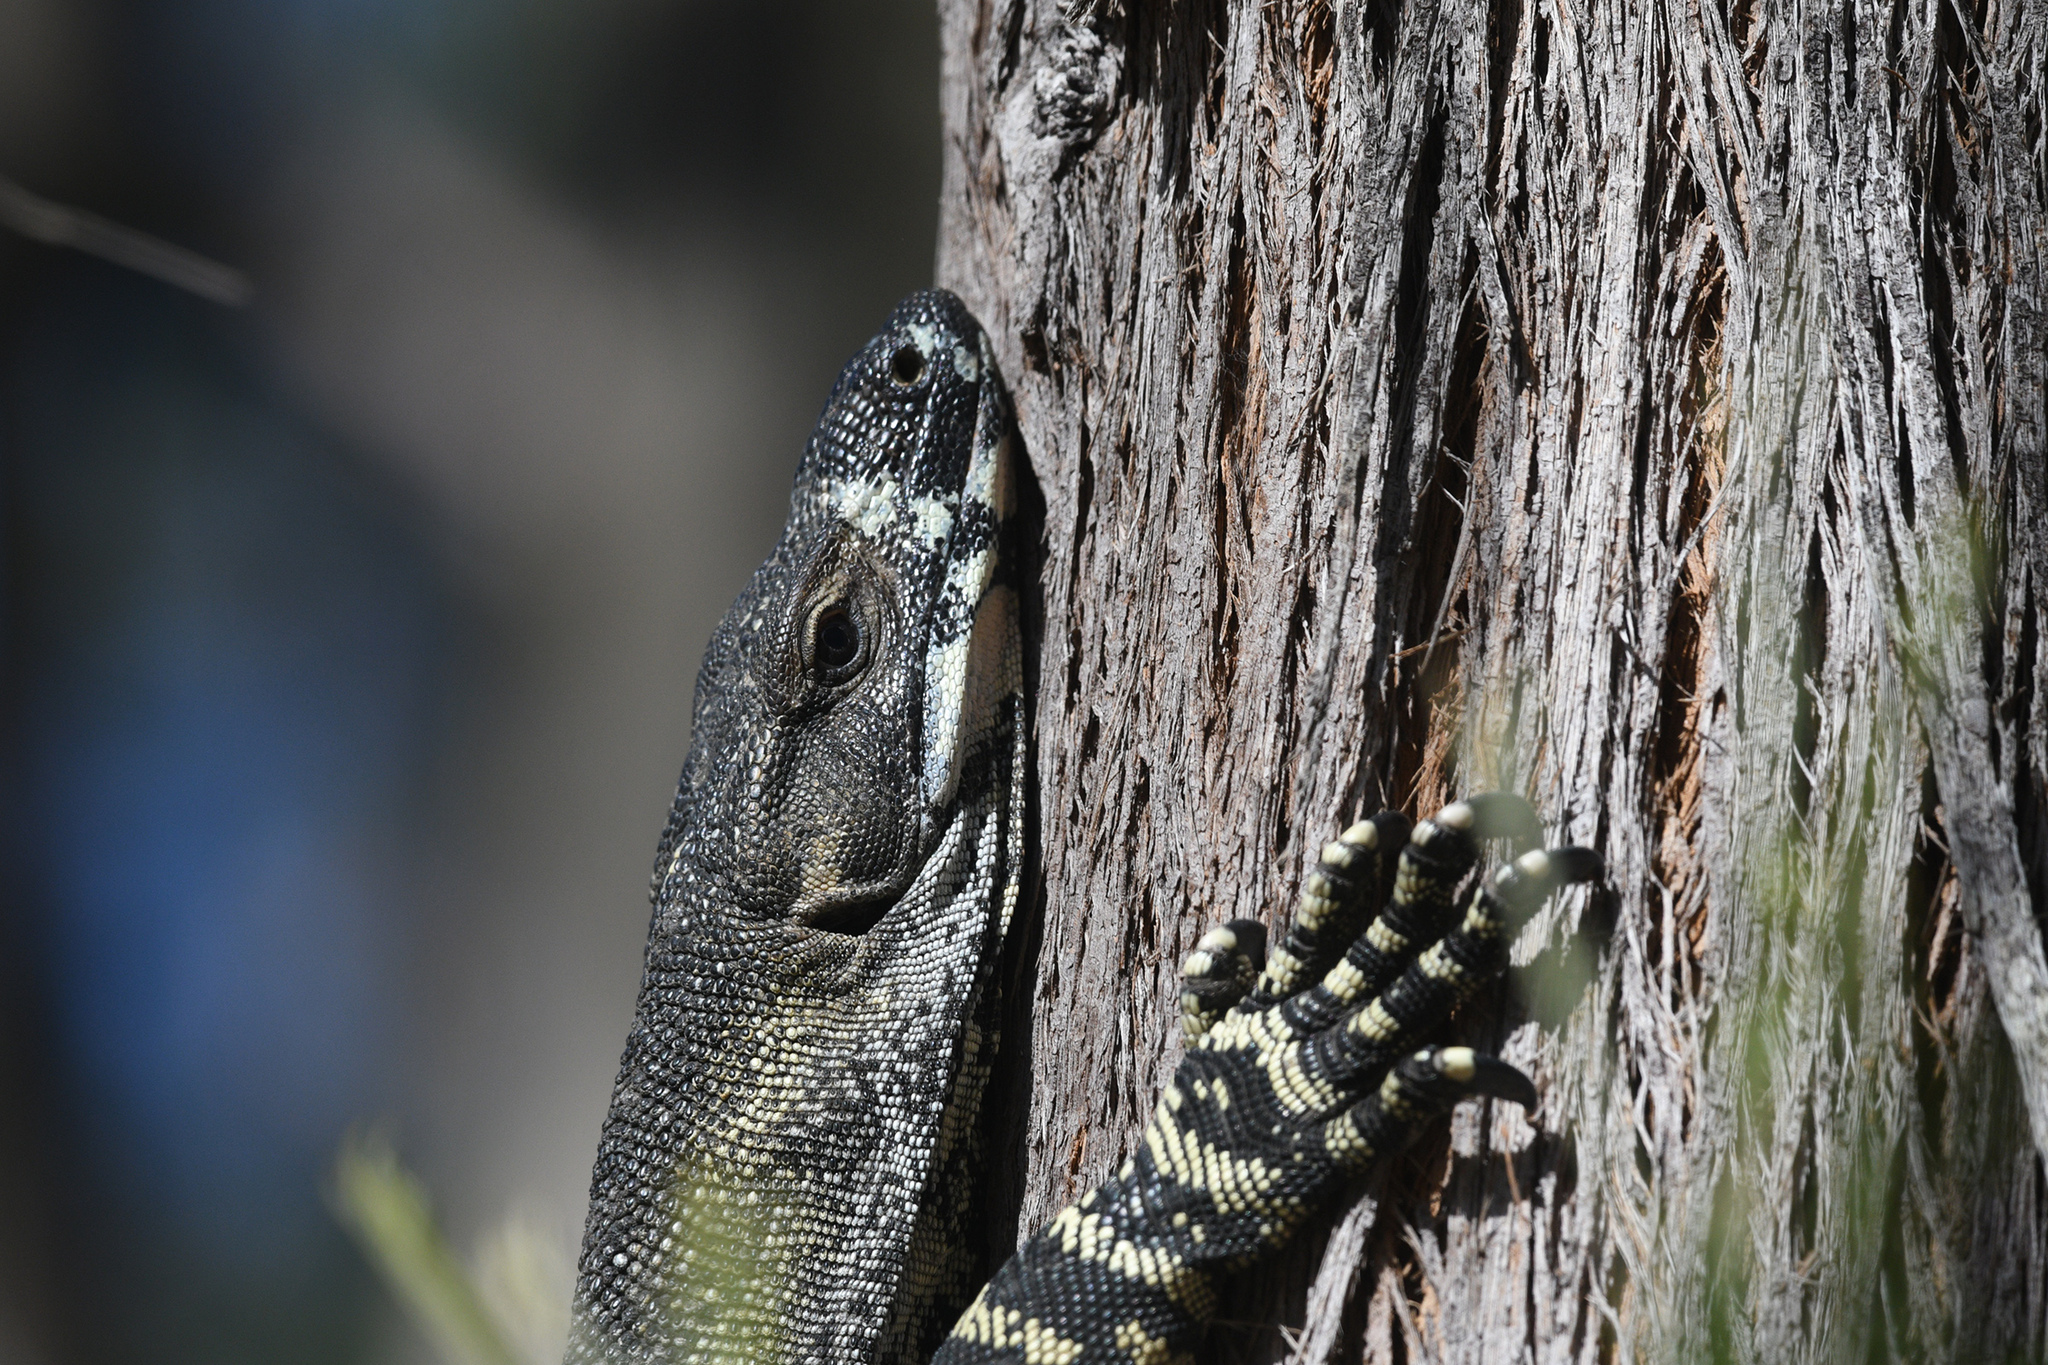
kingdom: Animalia
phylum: Chordata
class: Squamata
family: Varanidae
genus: Varanus
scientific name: Varanus varius
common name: Lace monitor
